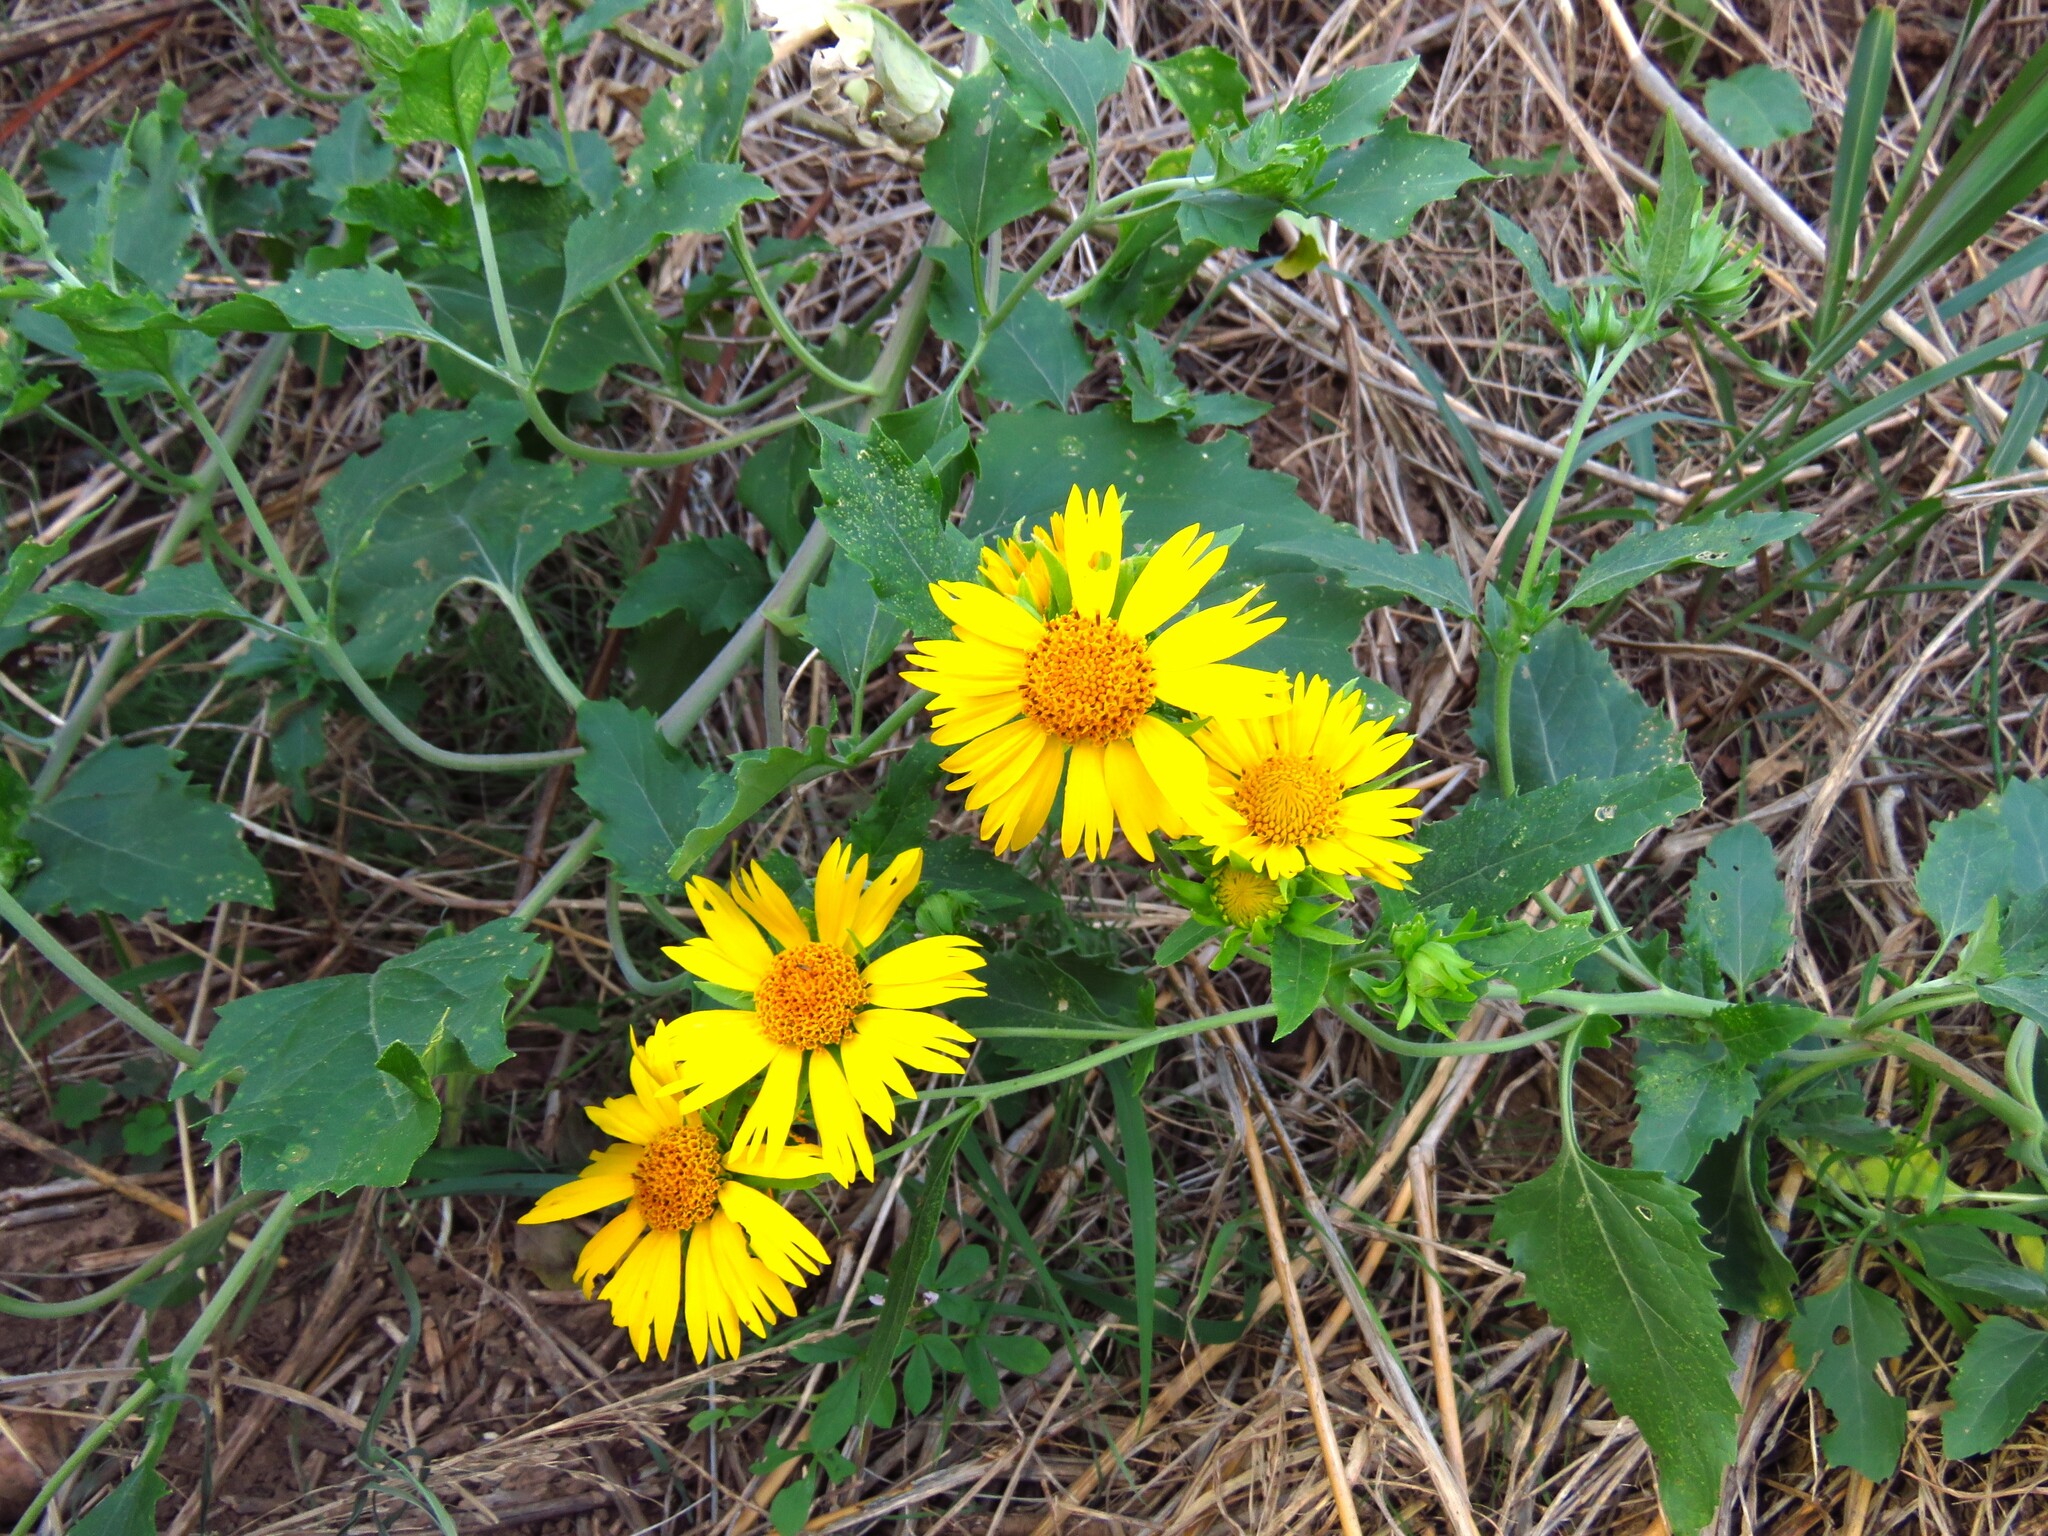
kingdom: Plantae
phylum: Tracheophyta
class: Magnoliopsida
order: Asterales
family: Asteraceae
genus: Verbesina
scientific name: Verbesina encelioides
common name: Golden crownbeard
